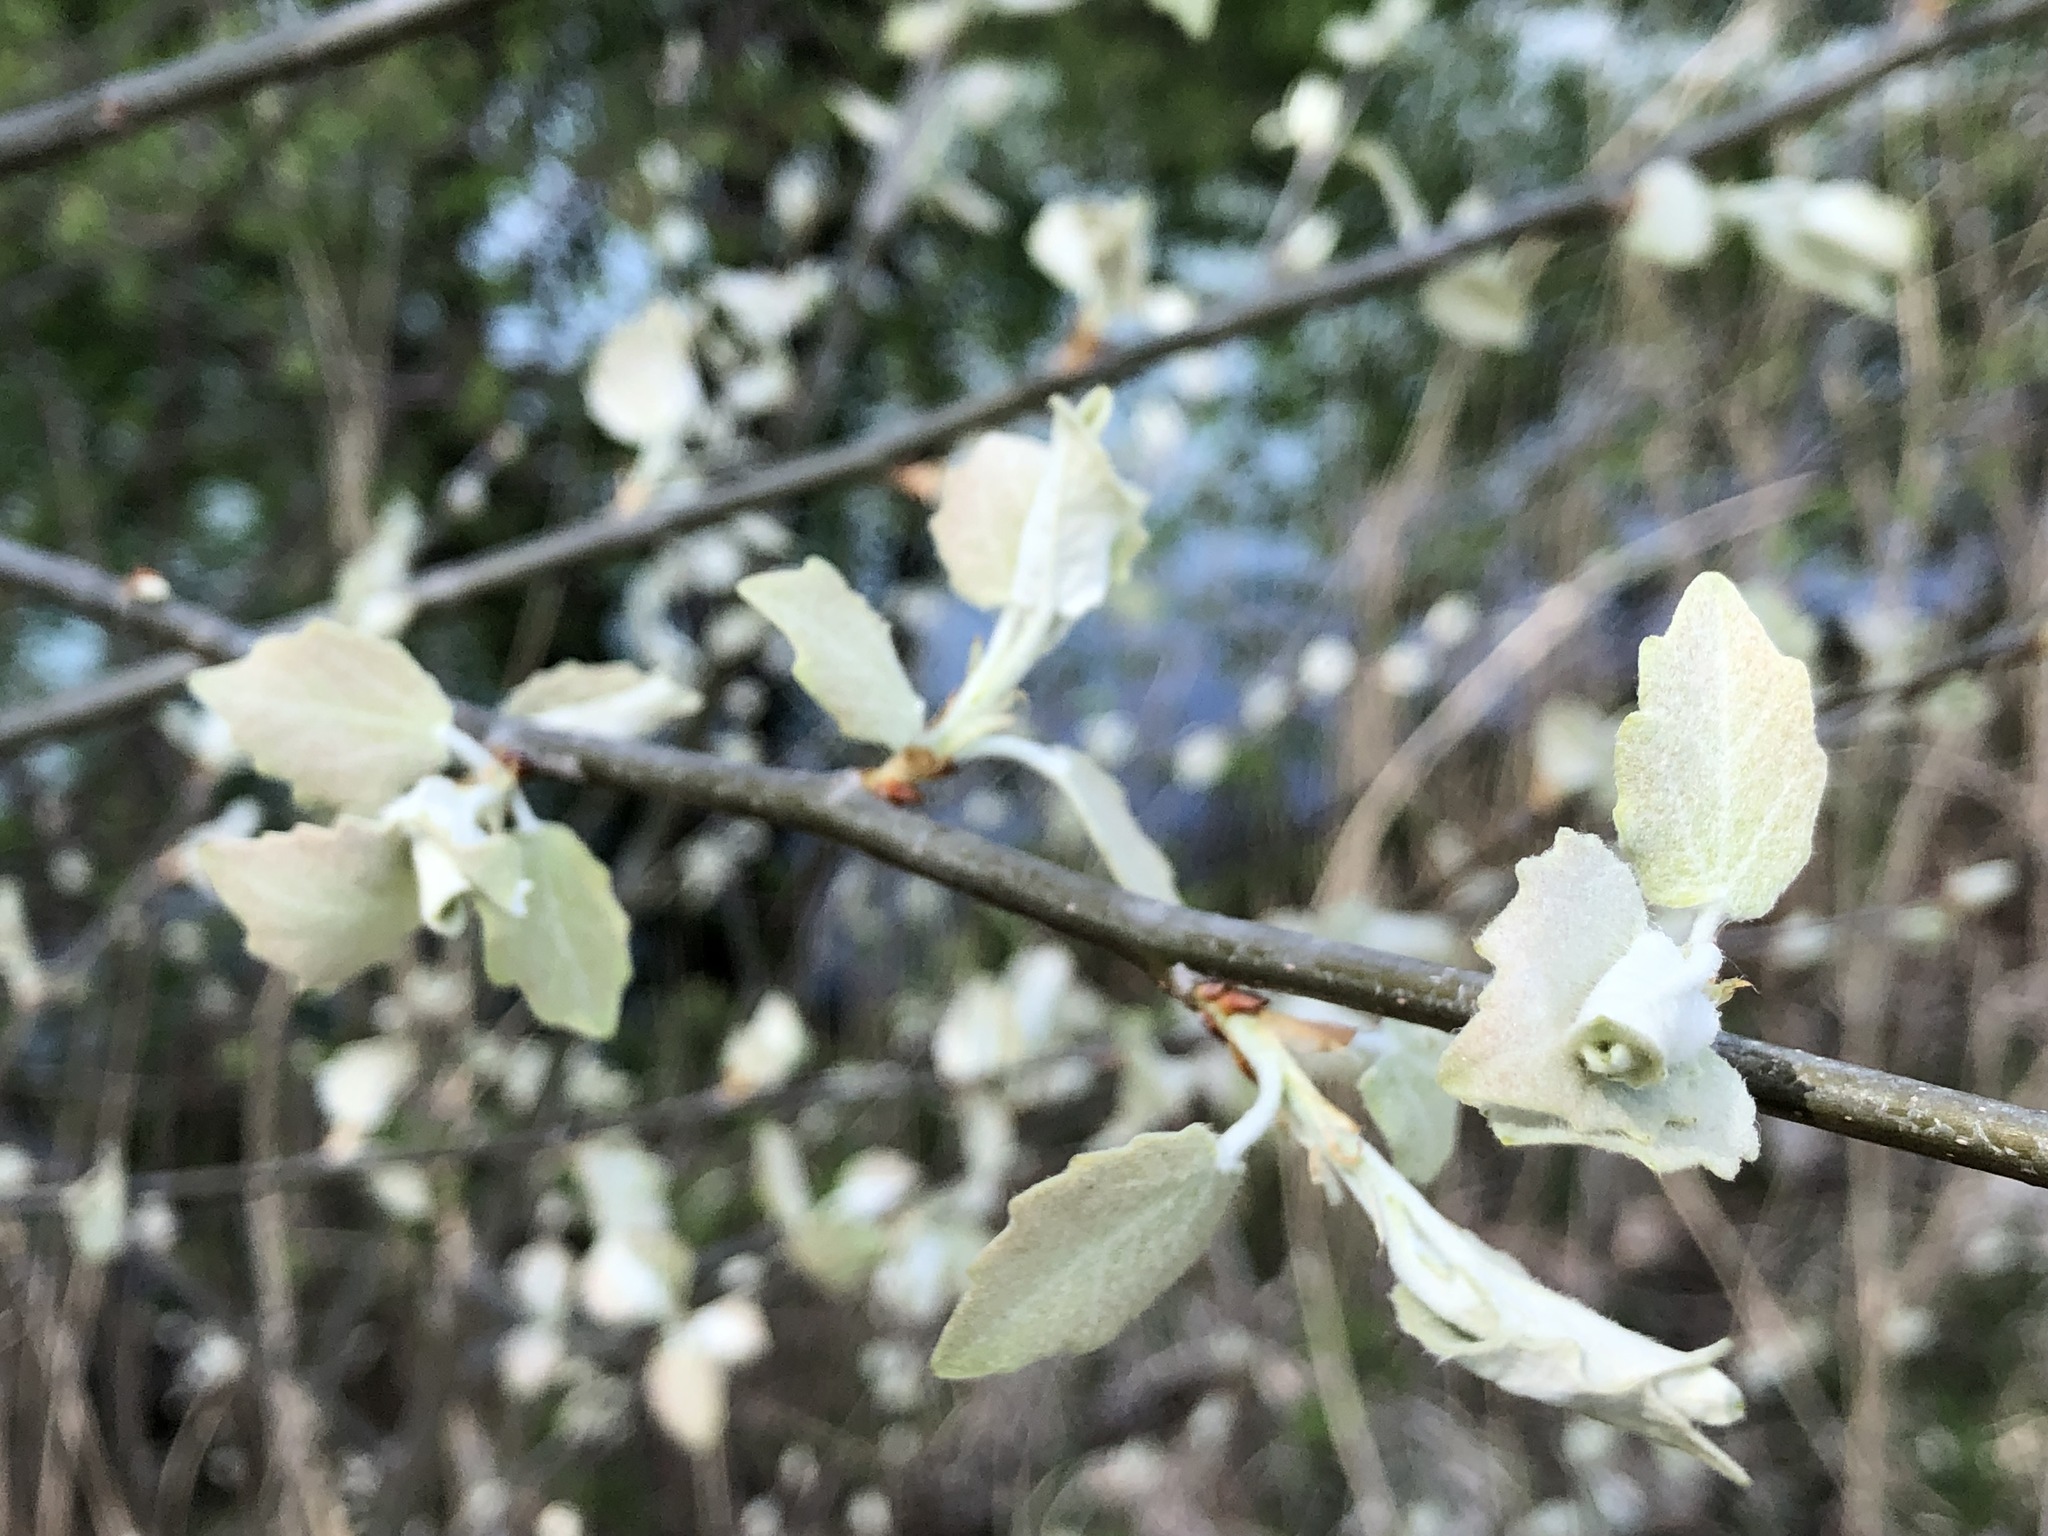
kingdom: Plantae
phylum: Tracheophyta
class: Magnoliopsida
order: Malpighiales
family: Salicaceae
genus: Populus
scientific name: Populus alba
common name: White poplar
